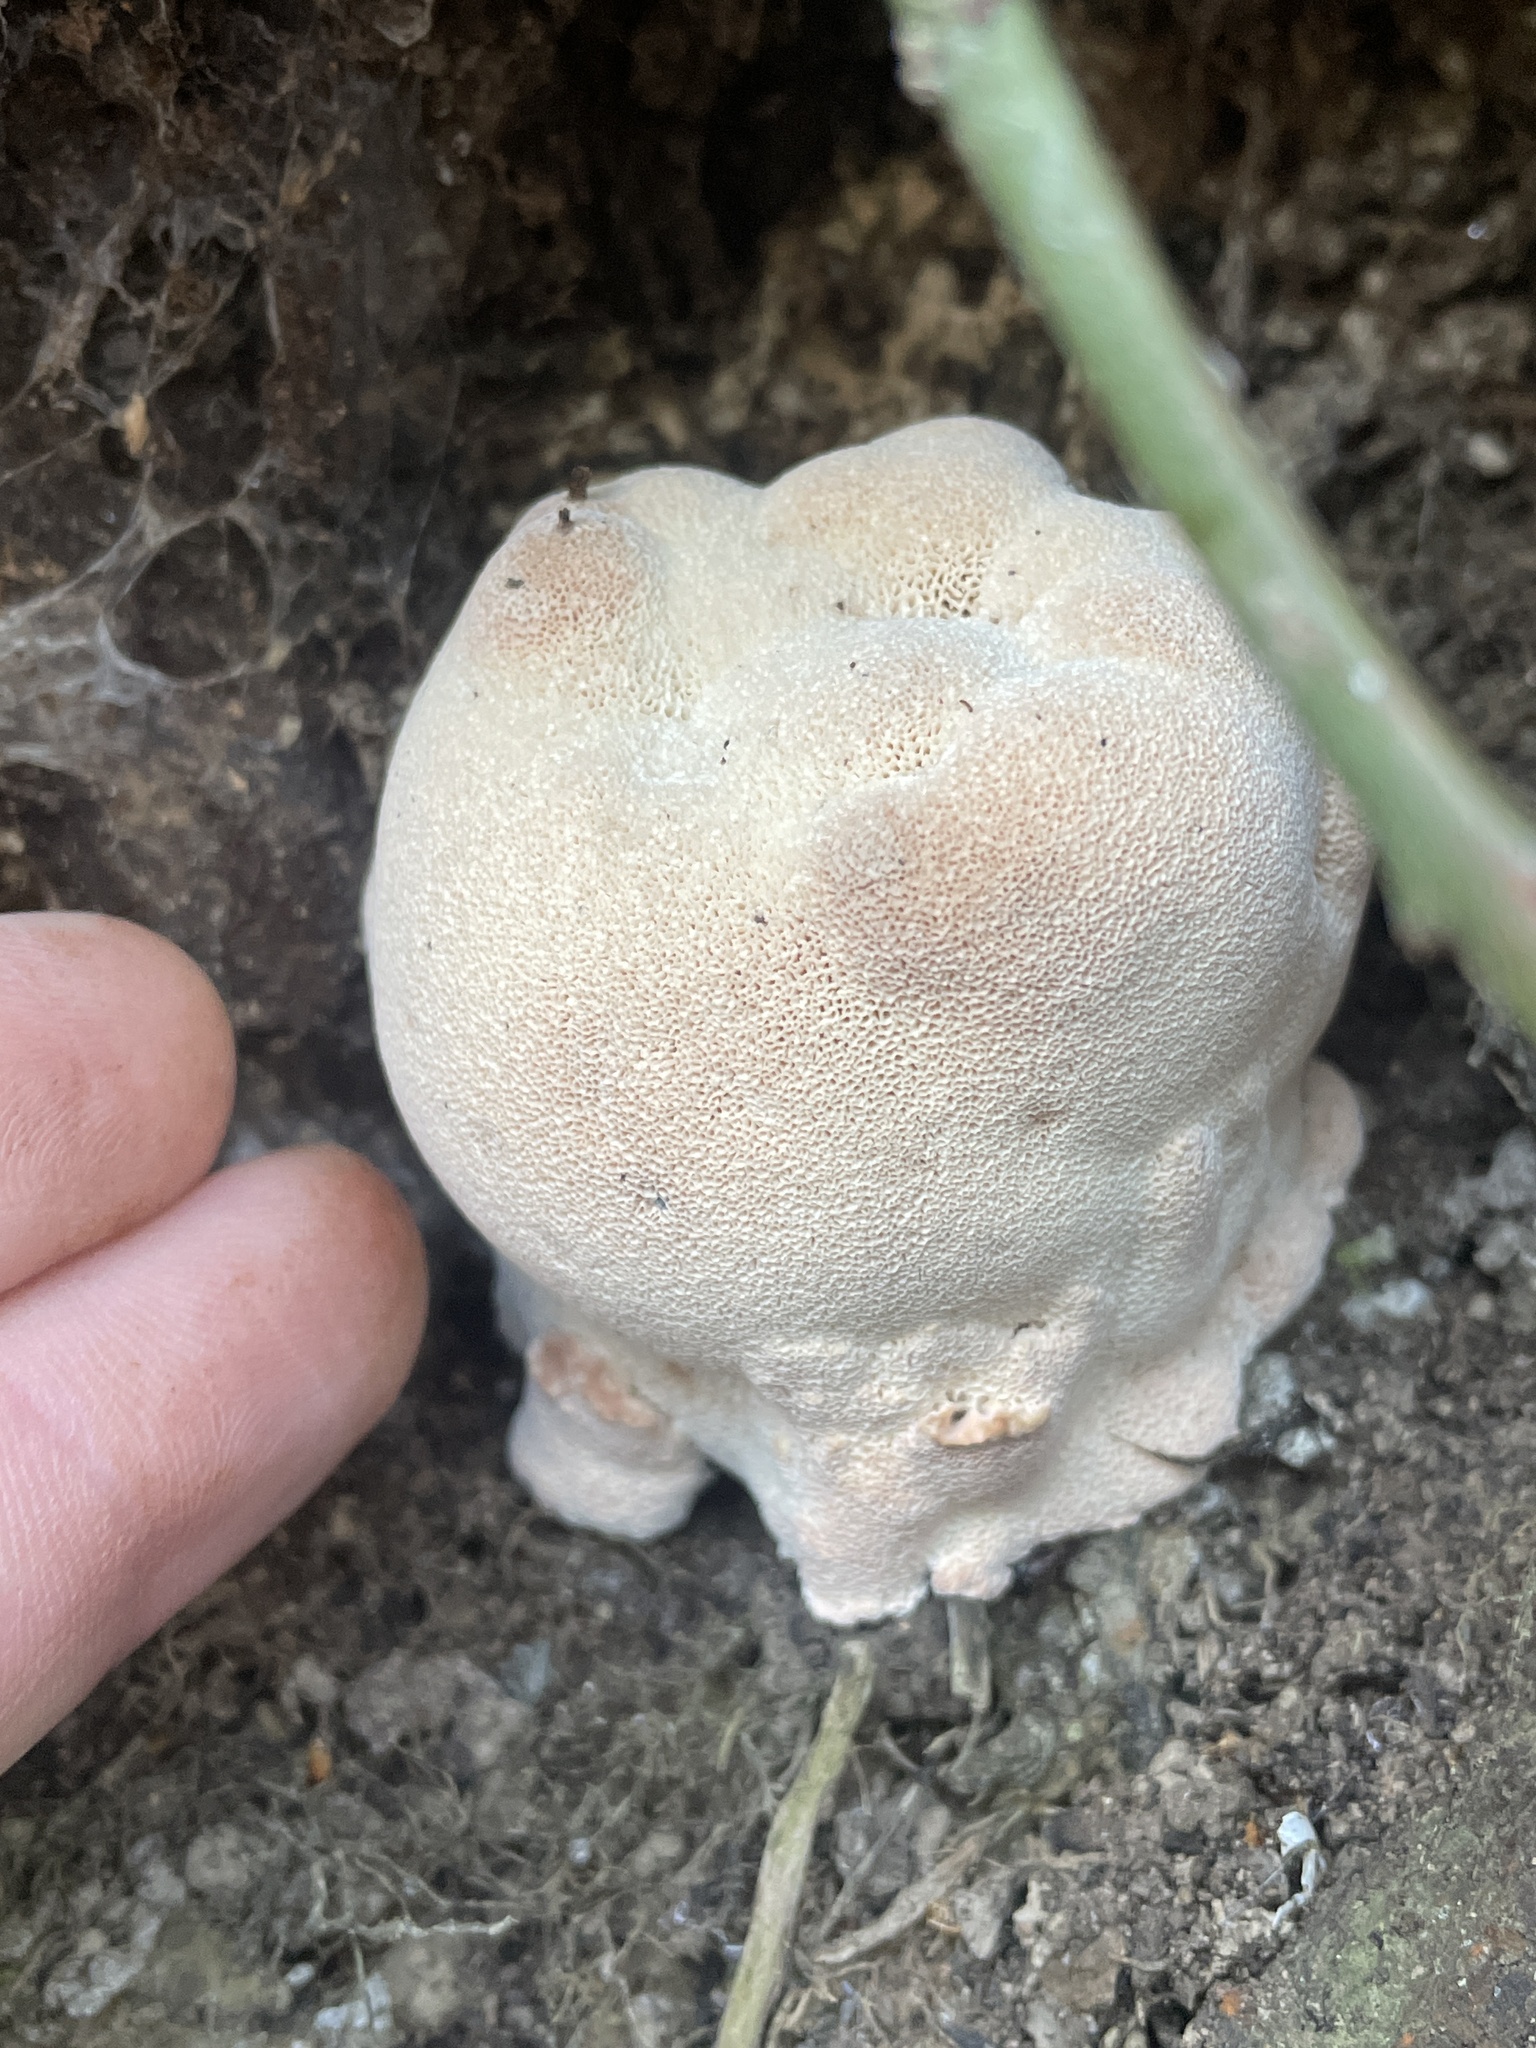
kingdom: Fungi
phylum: Basidiomycota
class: Agaricomycetes
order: Polyporales
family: Podoscyphaceae
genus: Abortiporus
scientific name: Abortiporus biennis
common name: Blushing rosette
